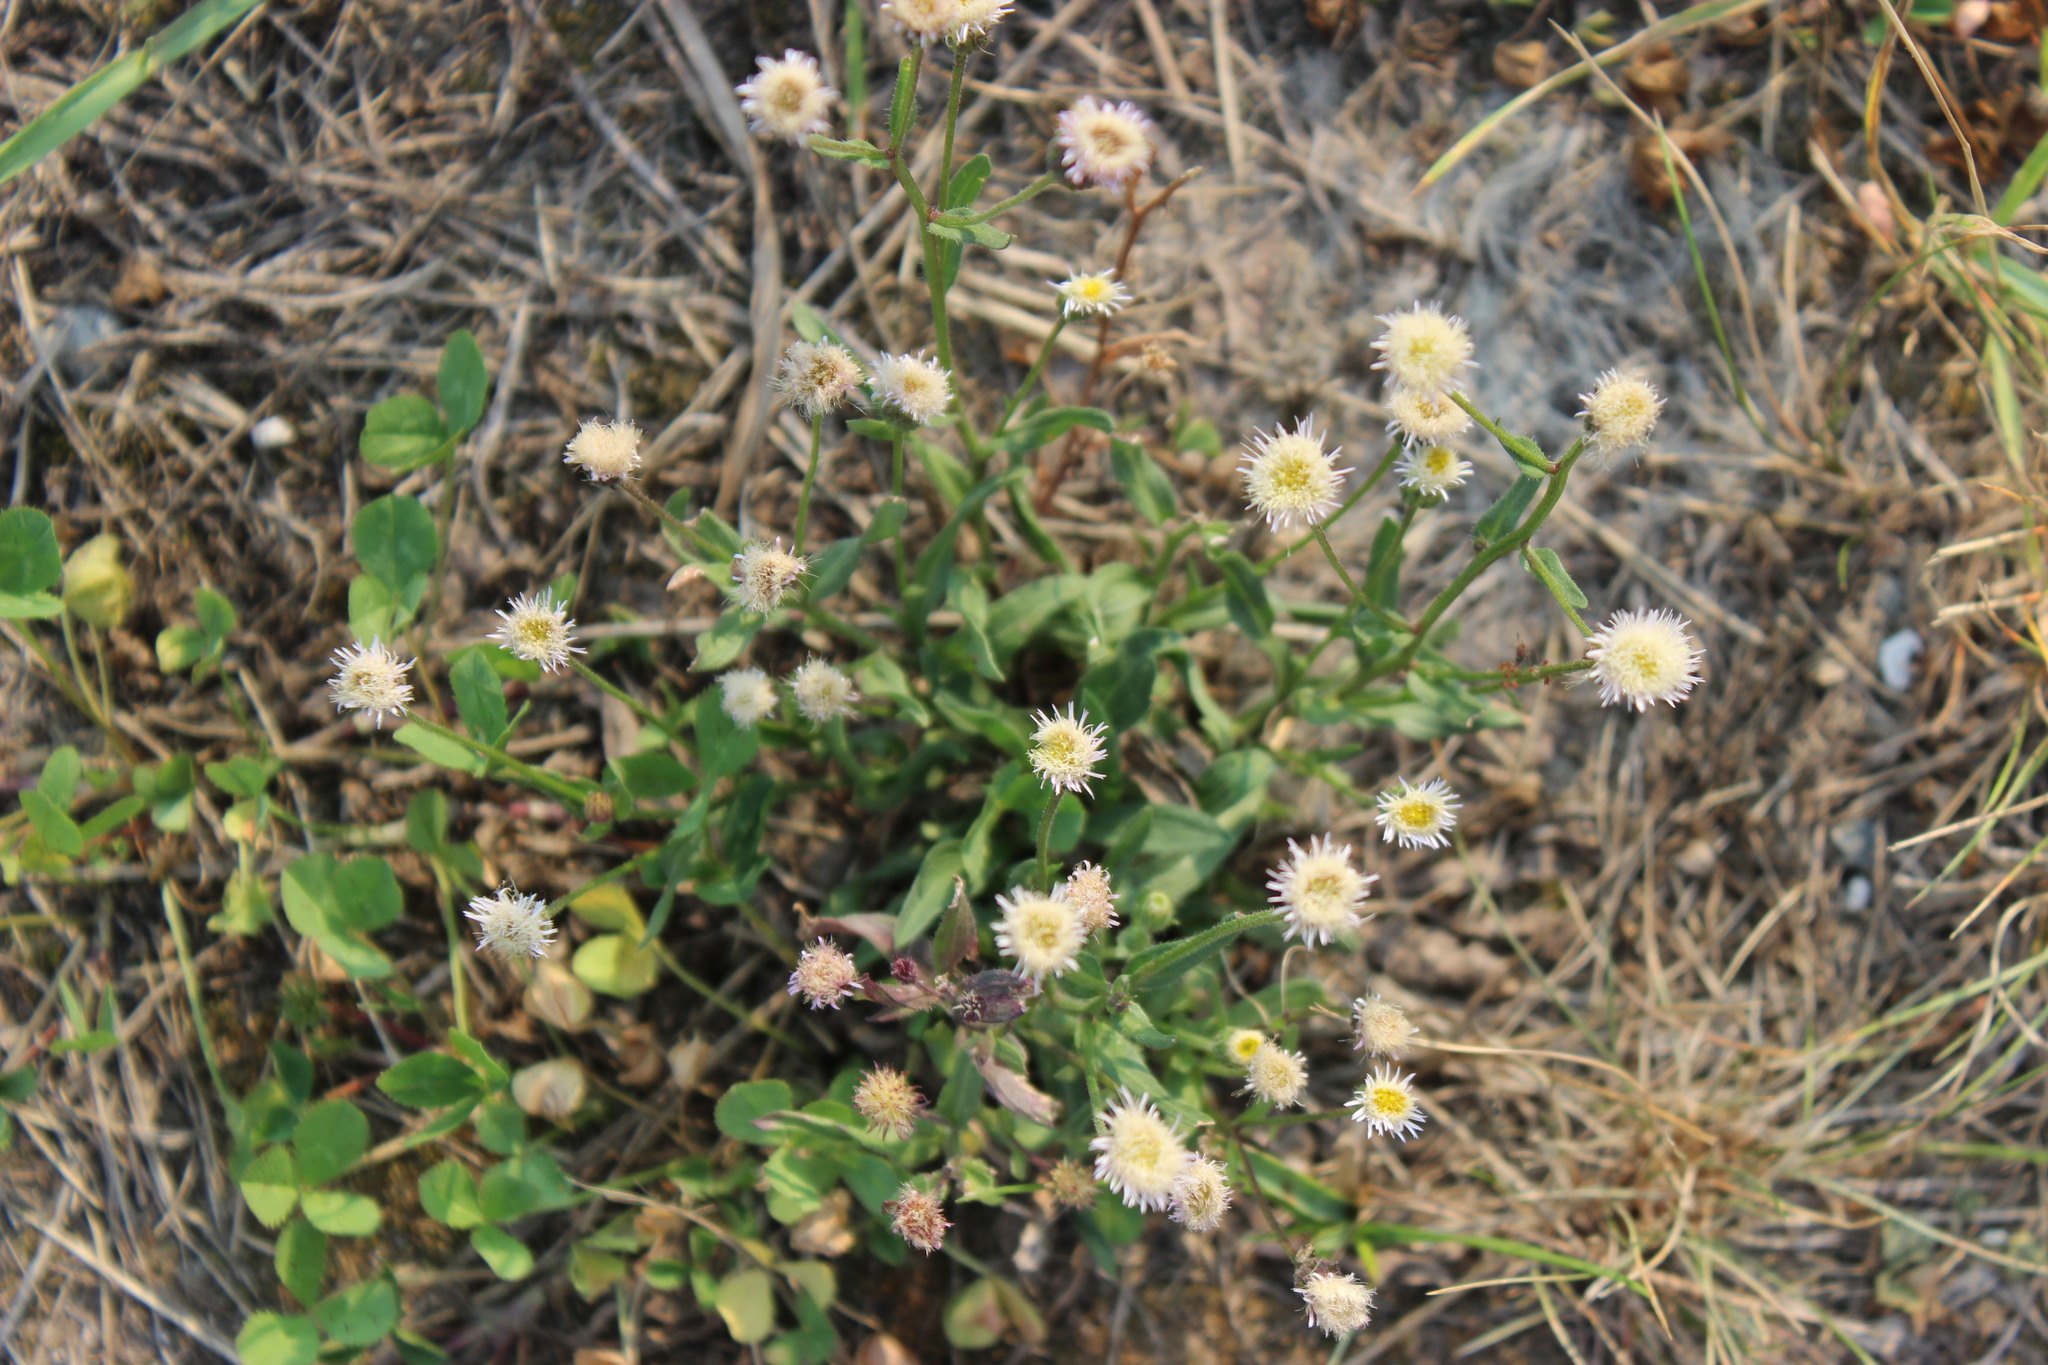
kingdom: Plantae
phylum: Tracheophyta
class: Magnoliopsida
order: Asterales
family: Asteraceae
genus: Erigeron
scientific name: Erigeron acris
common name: Blue fleabane
